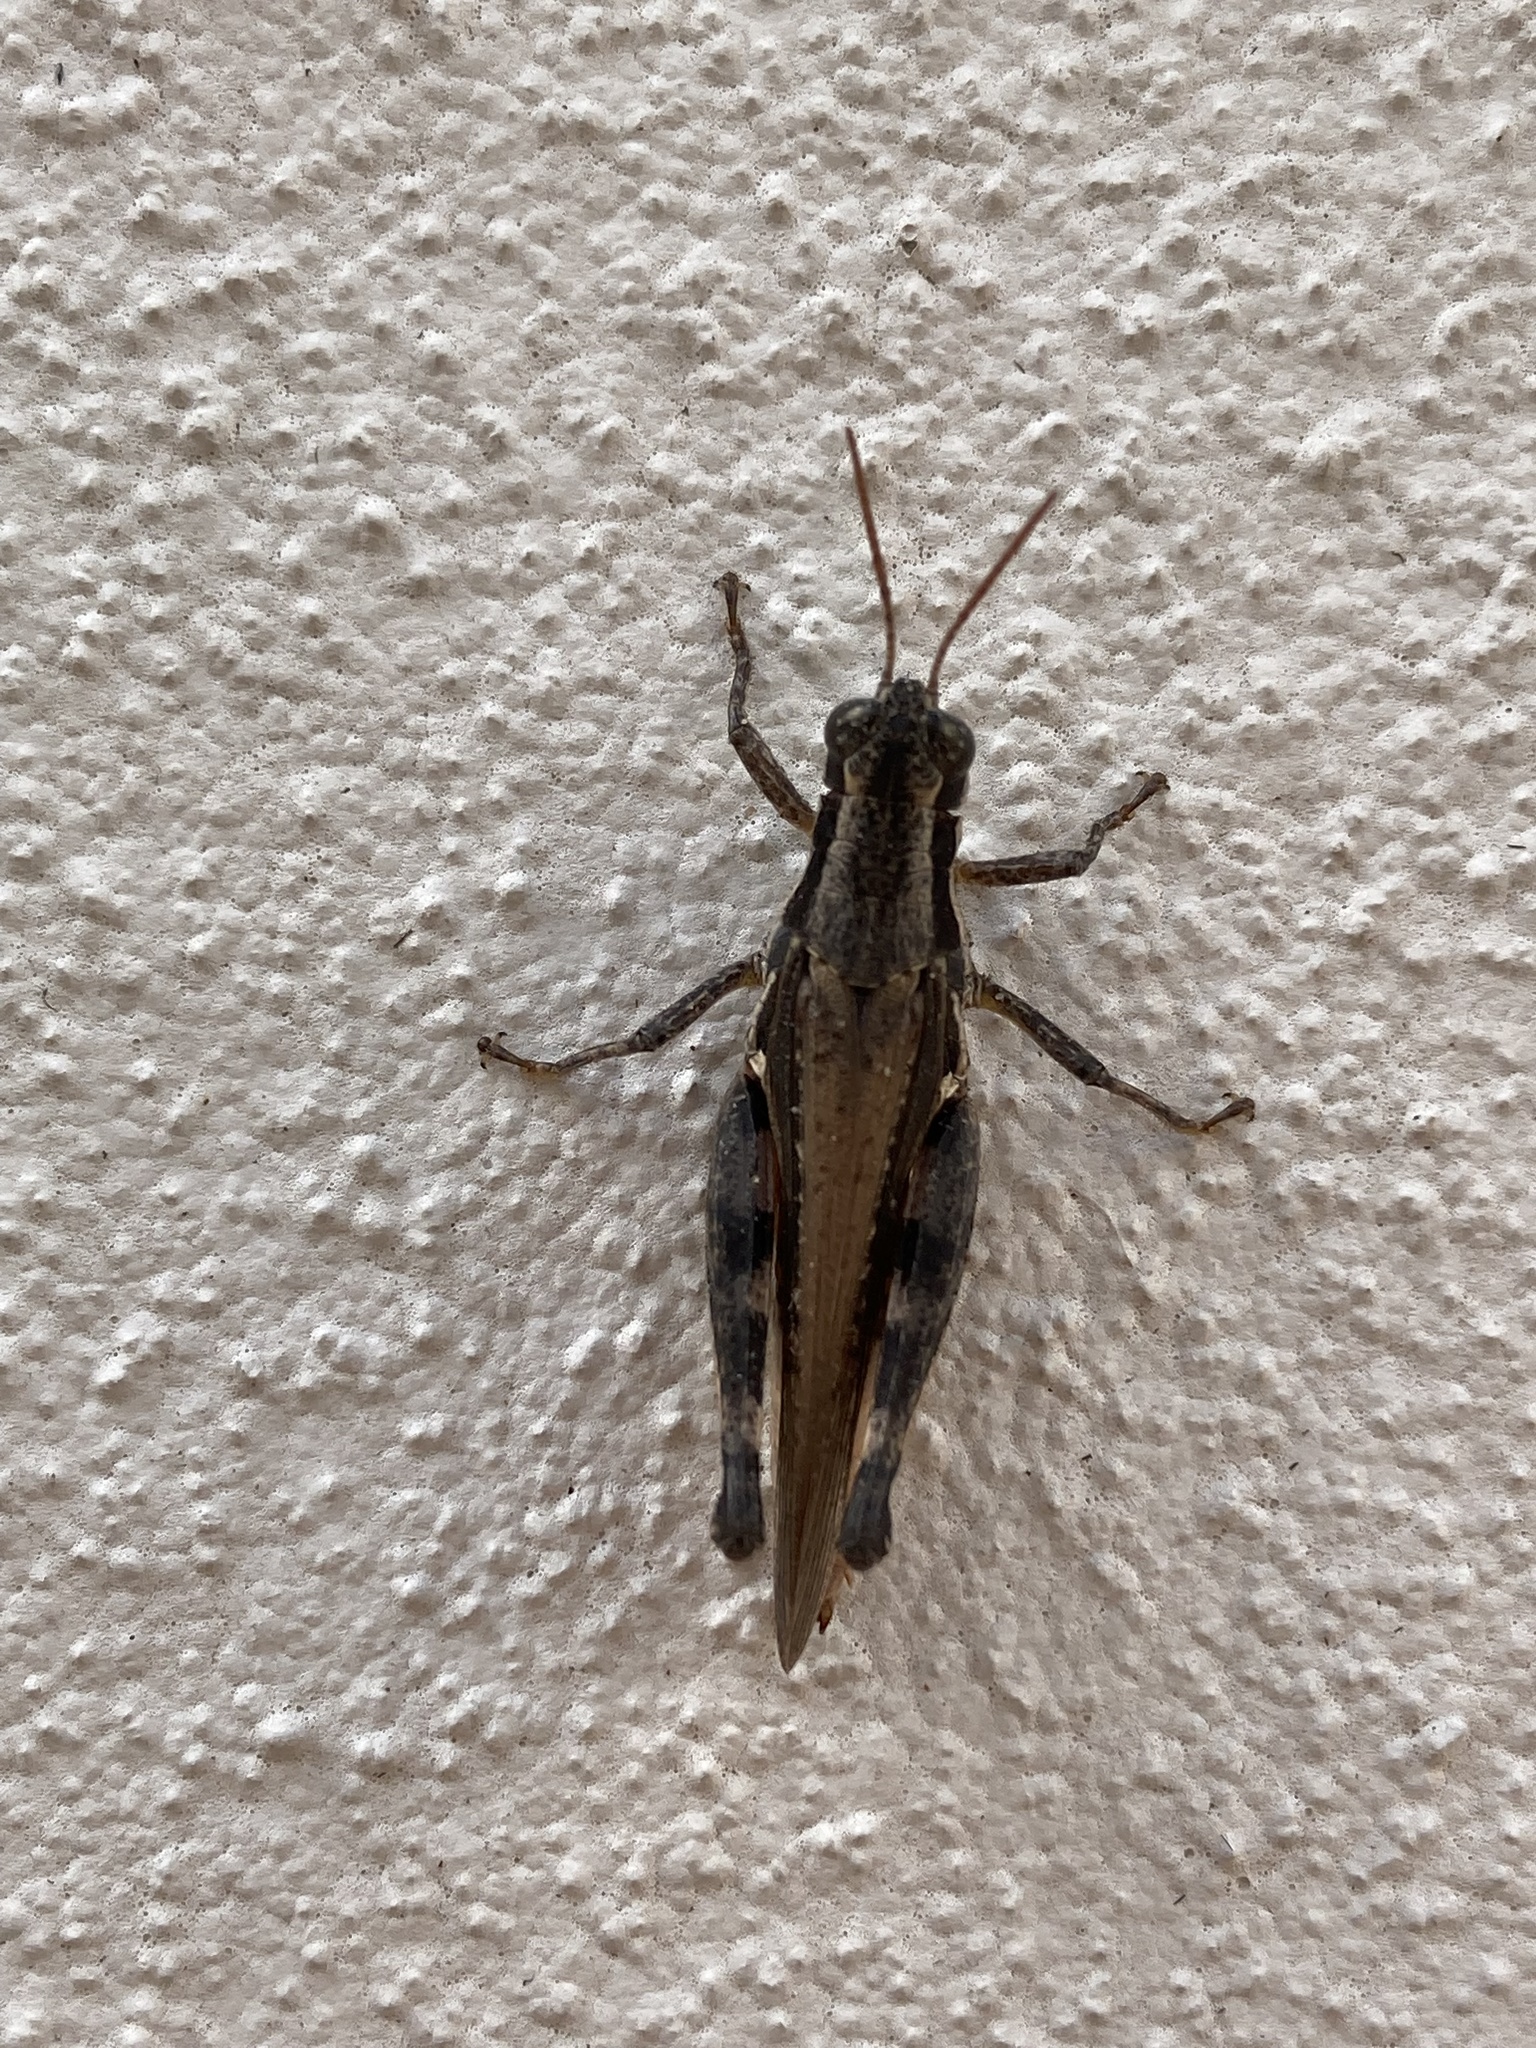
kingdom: Animalia
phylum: Arthropoda
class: Insecta
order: Orthoptera
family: Acrididae
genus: Dichroplus
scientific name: Dichroplus exilis
